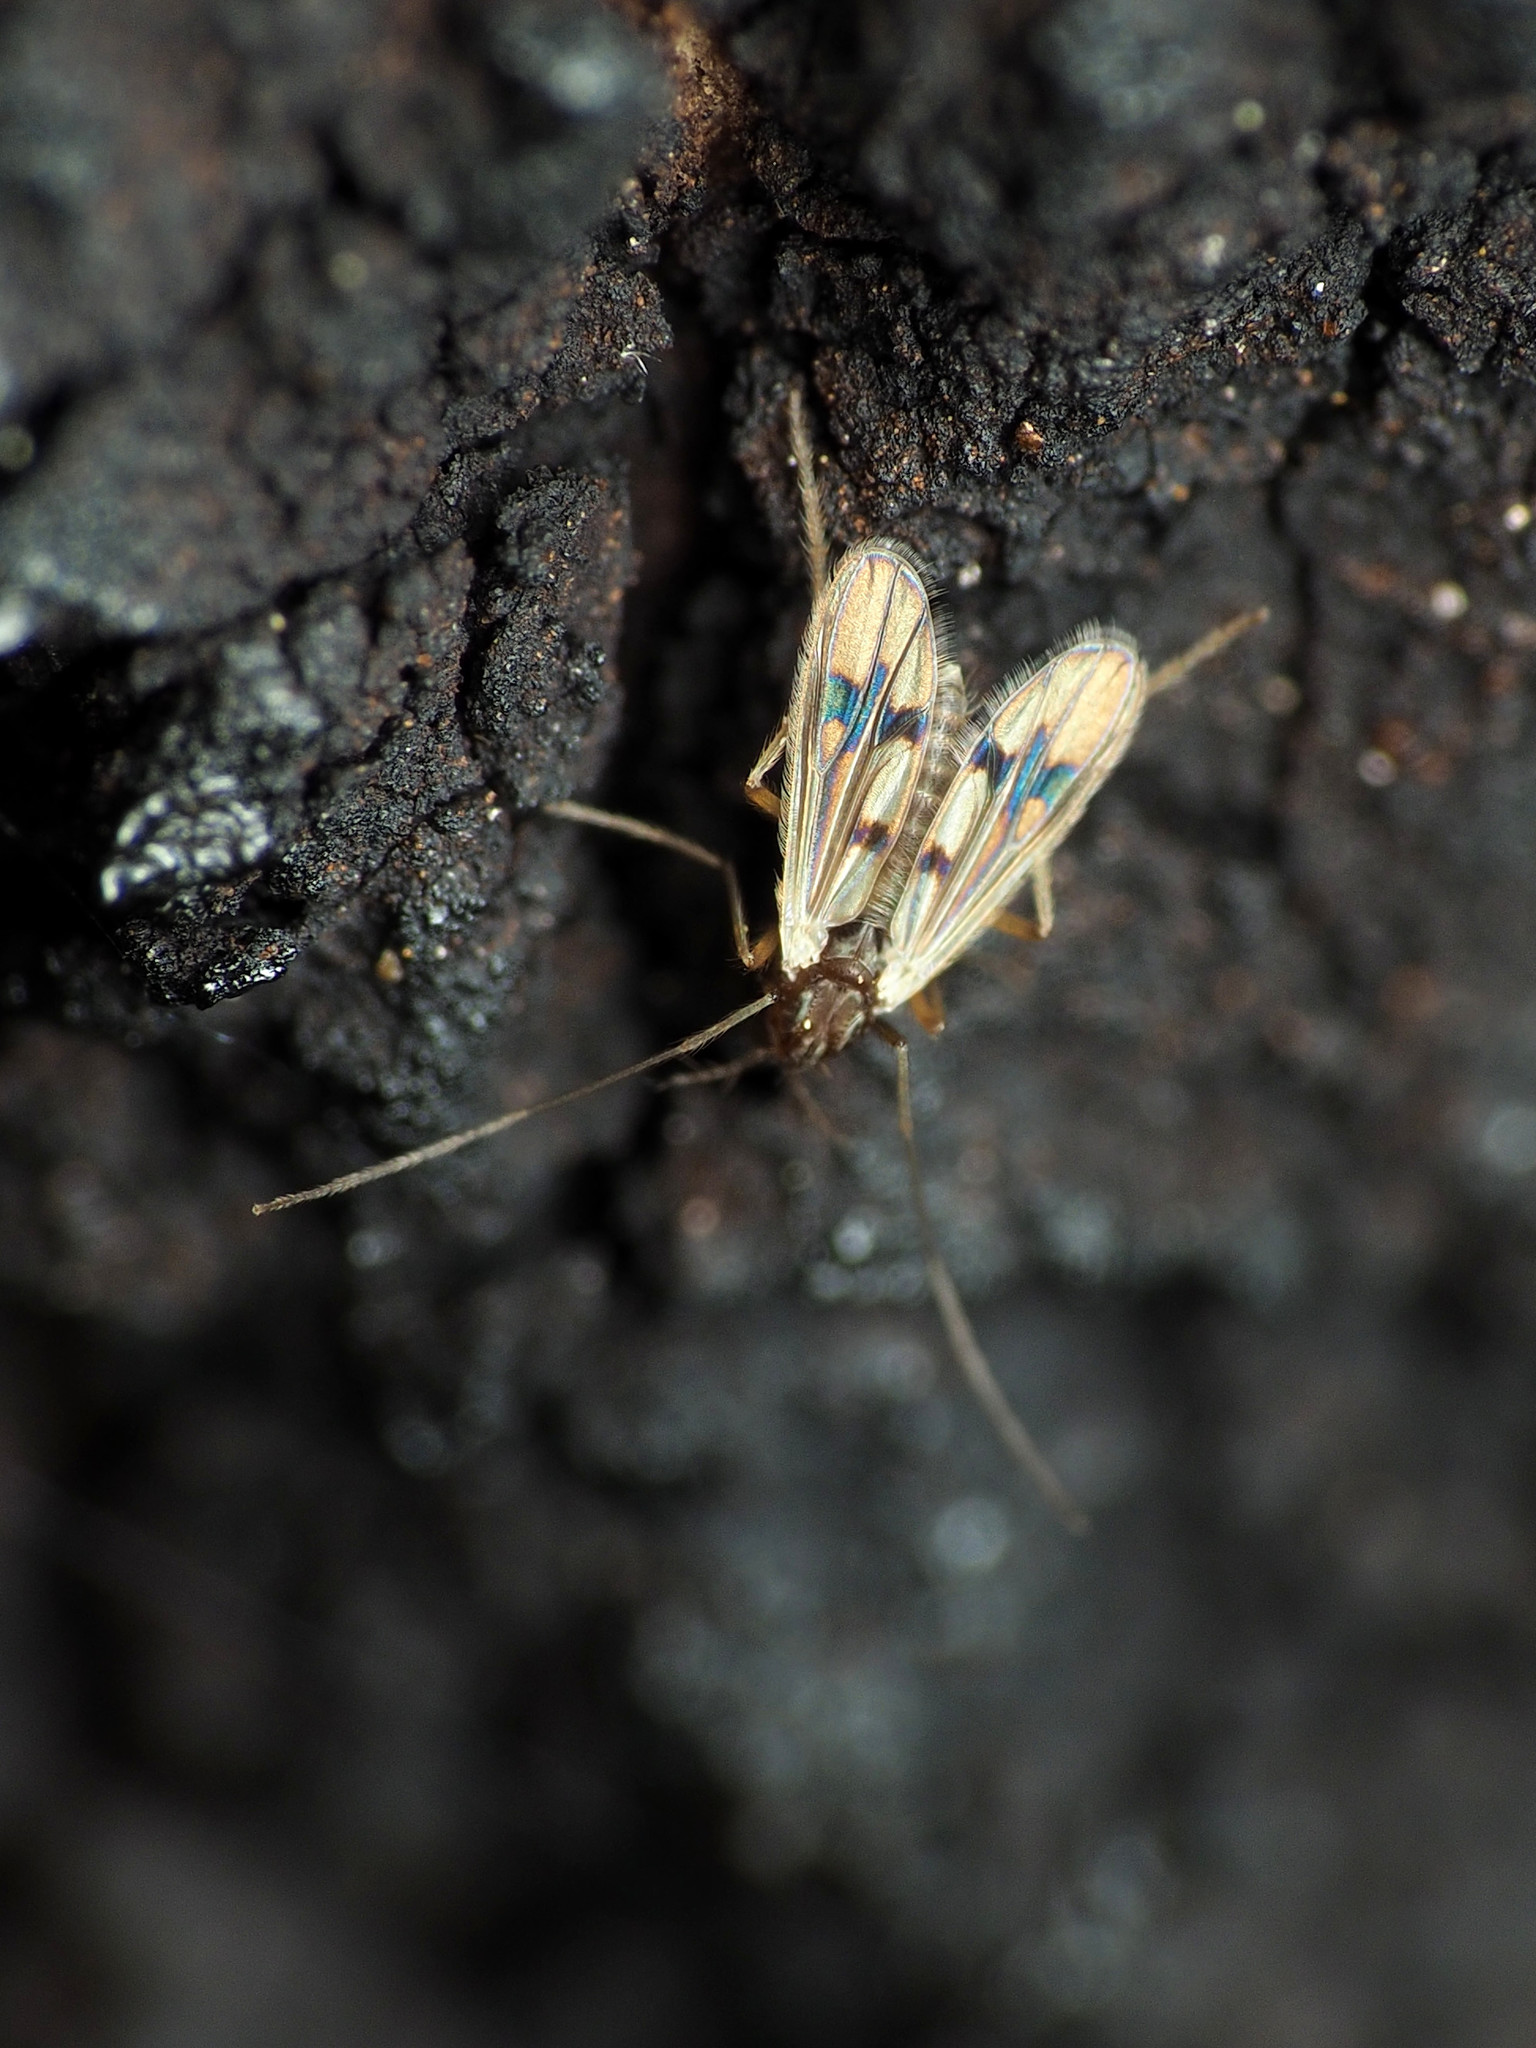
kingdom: Animalia
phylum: Arthropoda
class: Insecta
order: Diptera
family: Chironomidae
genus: Polypedilum
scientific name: Polypedilum scalaenum
